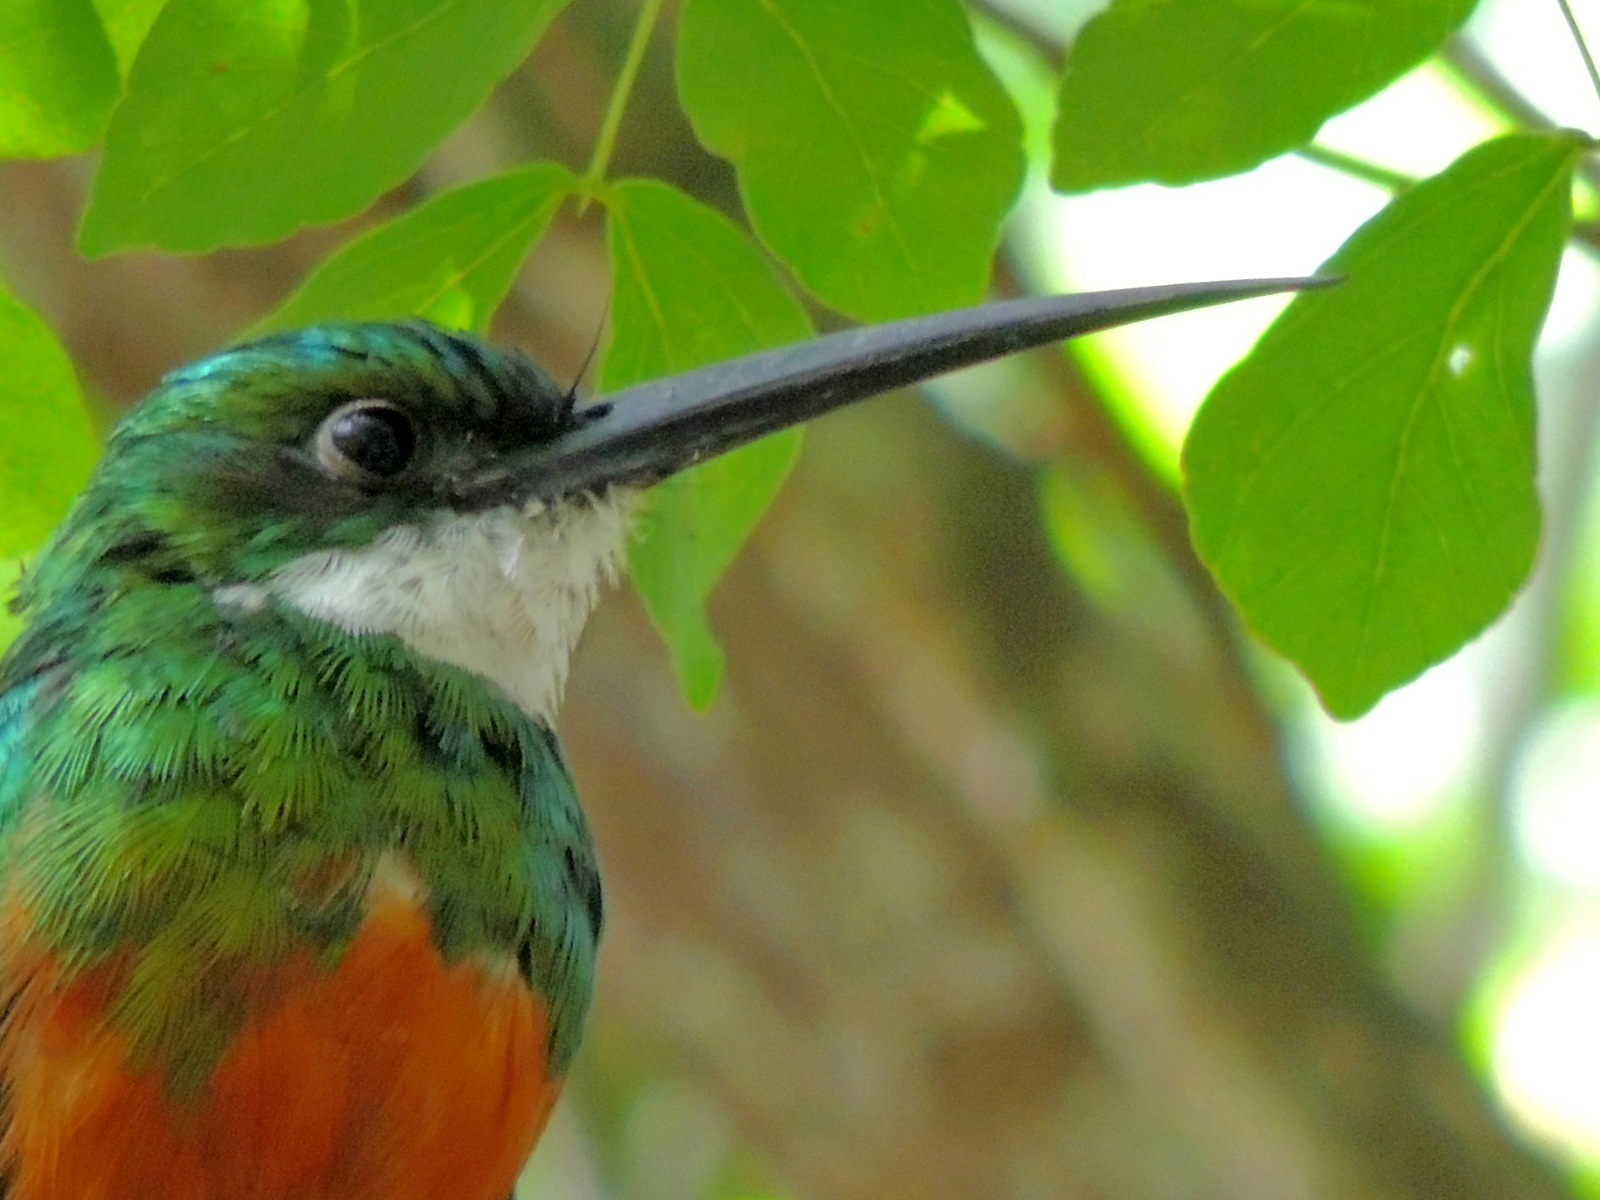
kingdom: Animalia
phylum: Chordata
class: Aves
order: Piciformes
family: Galbulidae
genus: Galbula
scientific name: Galbula ruficauda
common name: Rufous-tailed jacamar
